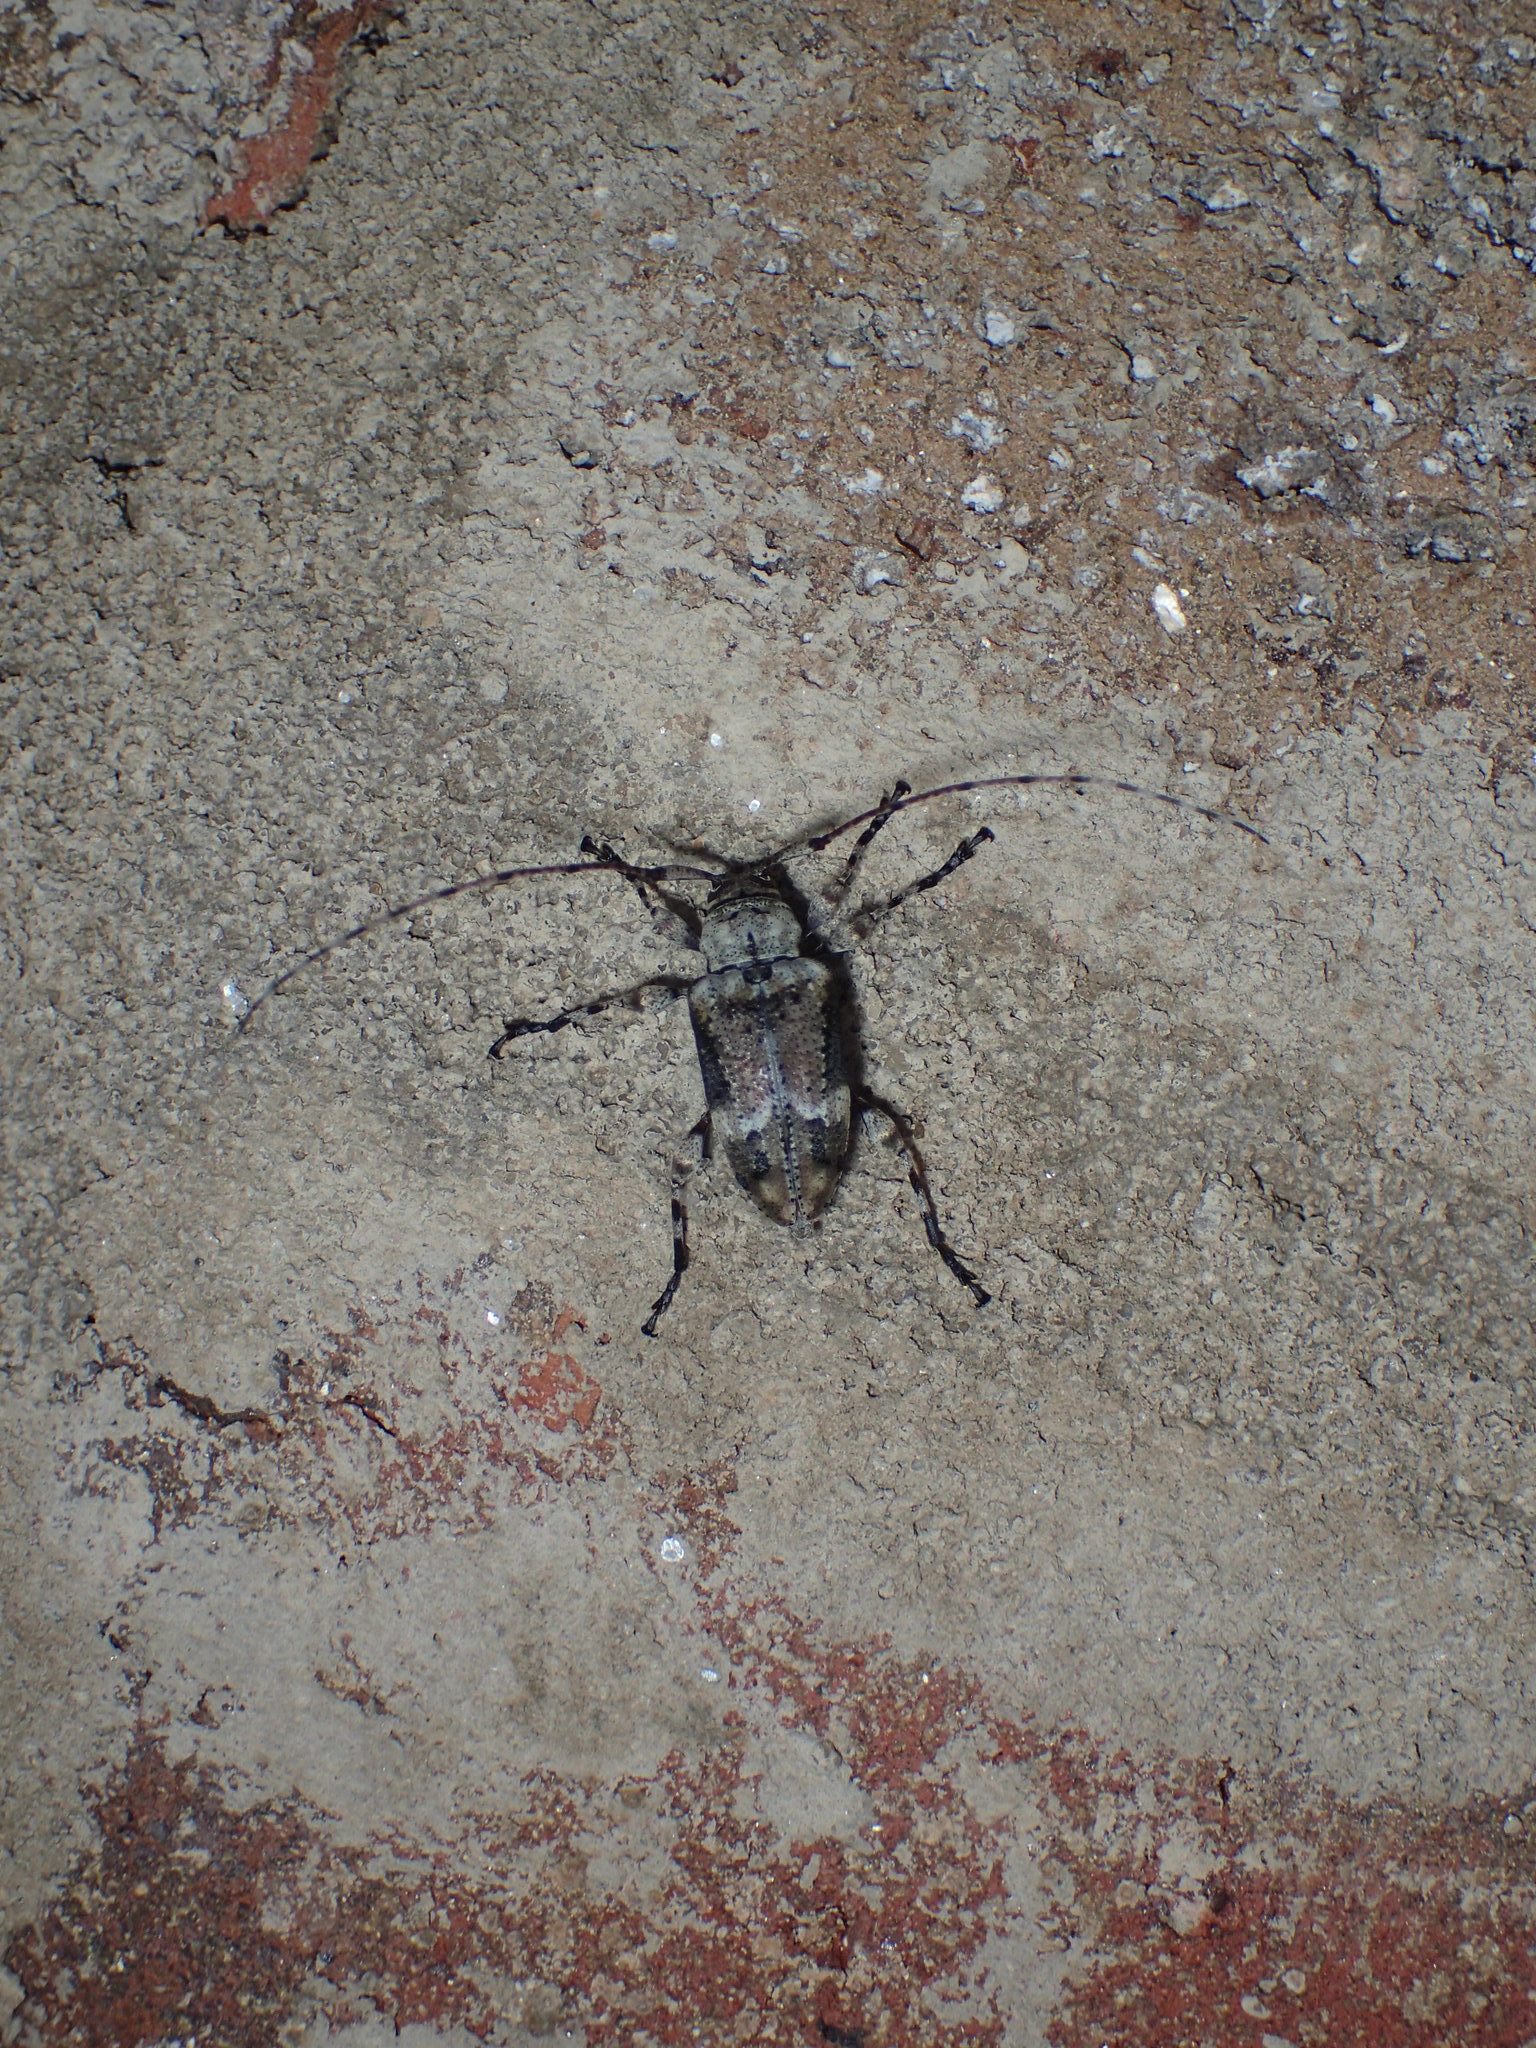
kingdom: Animalia
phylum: Arthropoda
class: Insecta
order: Coleoptera
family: Cerambycidae
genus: Leptostylopsis
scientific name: Leptostylopsis planidorsus
